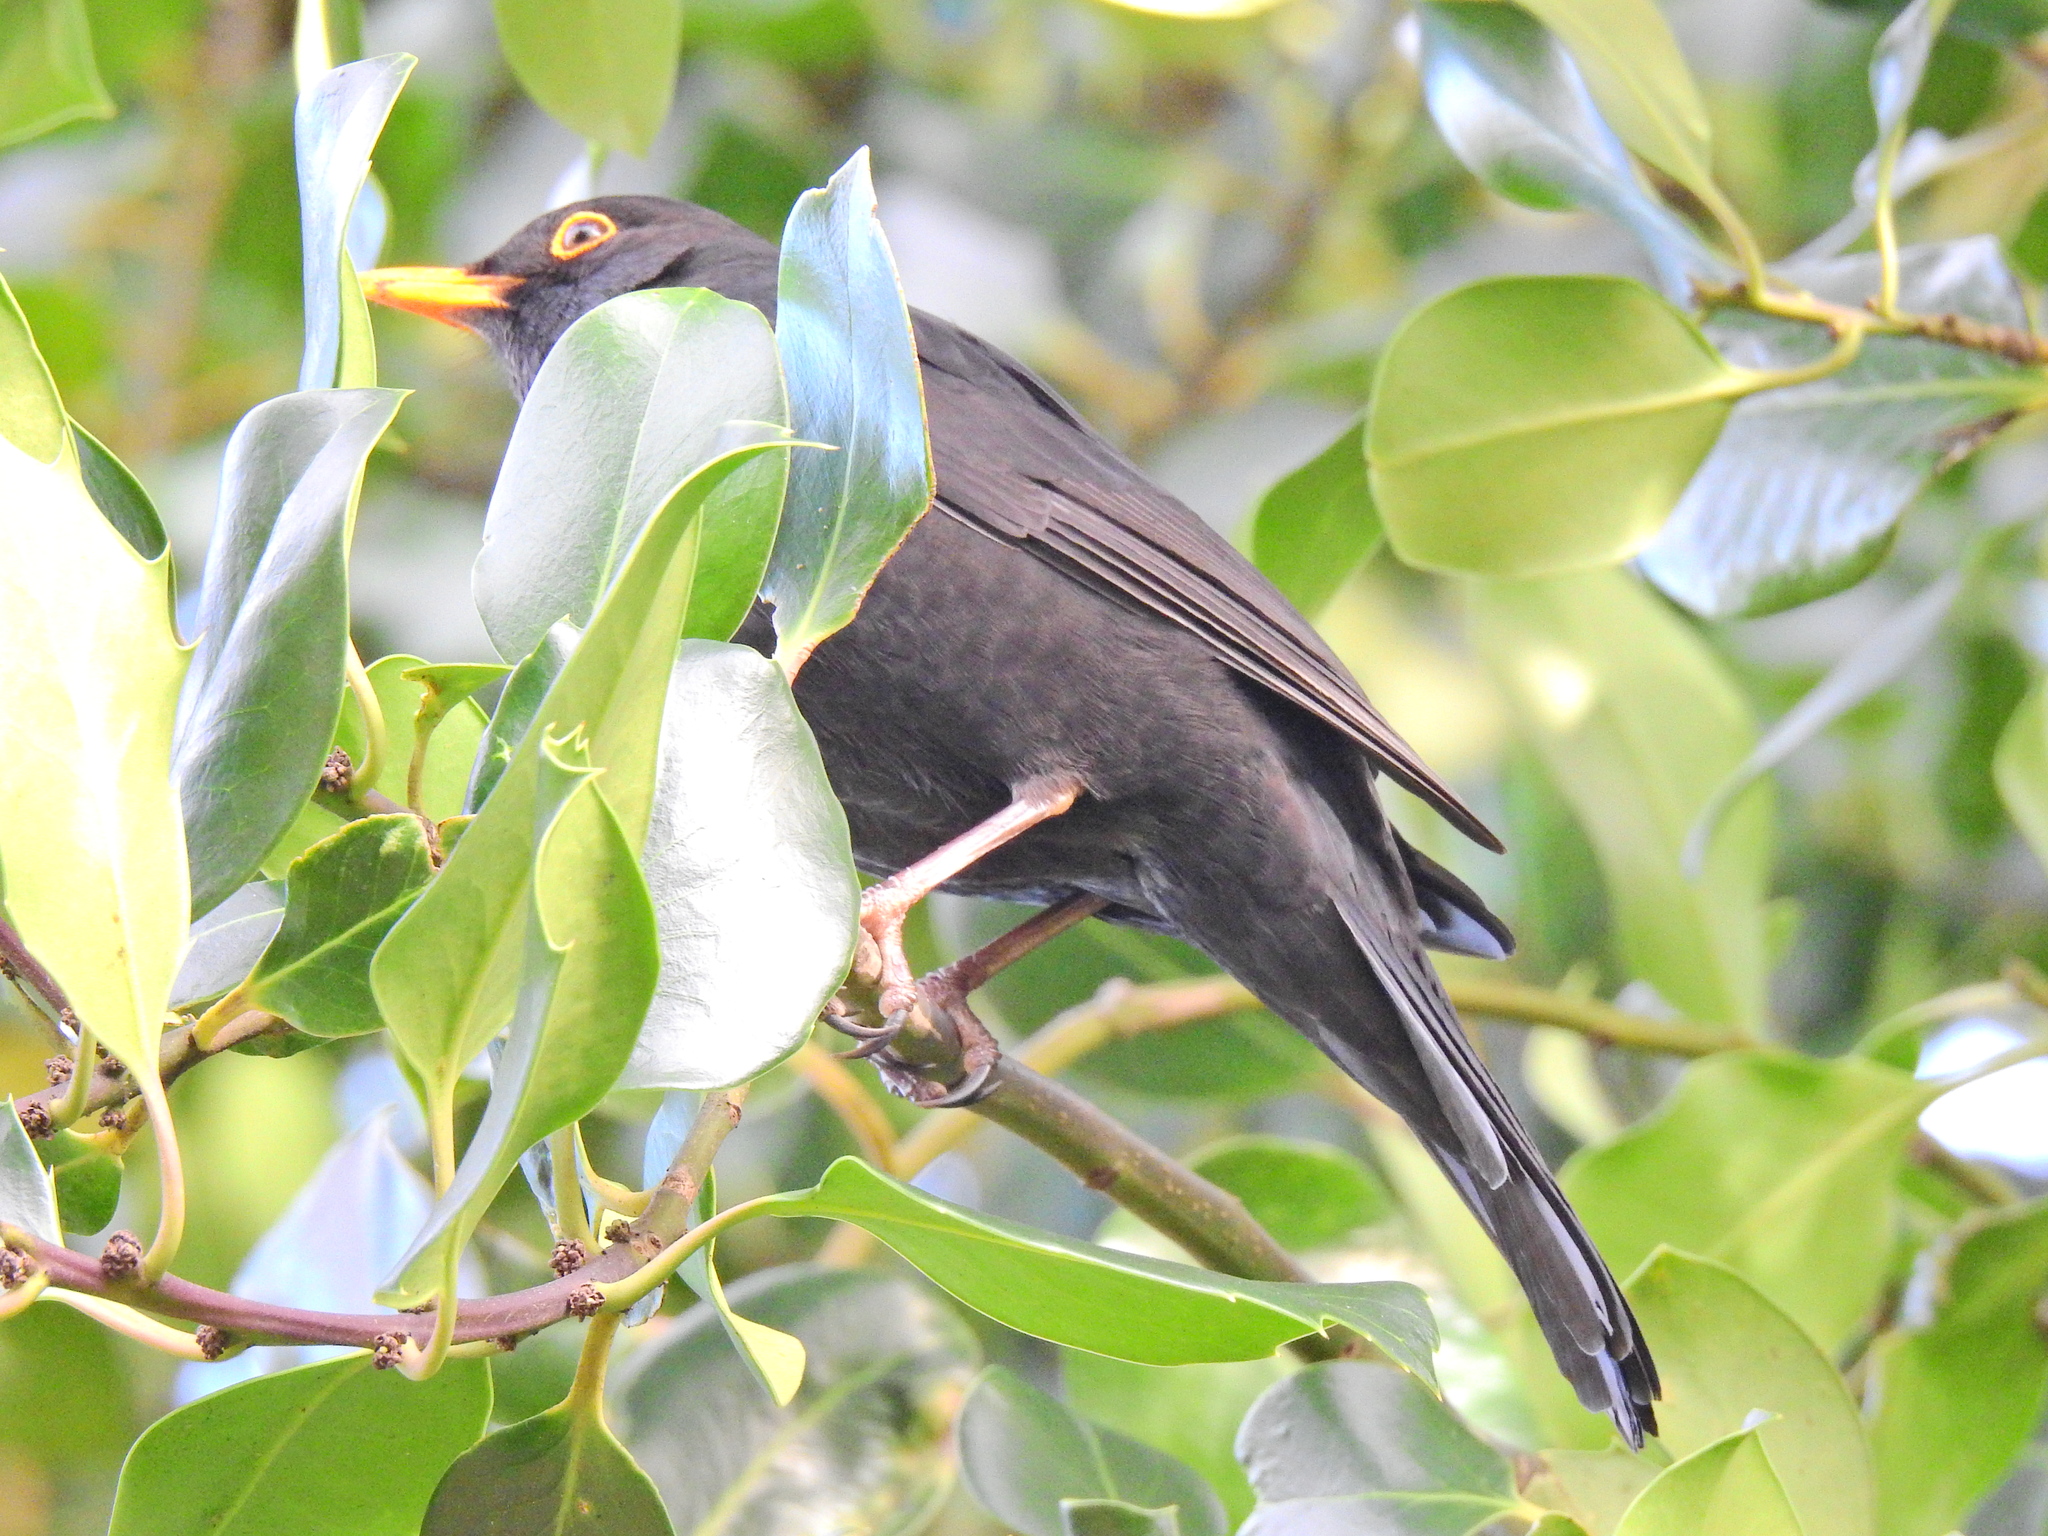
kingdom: Animalia
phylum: Chordata
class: Aves
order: Passeriformes
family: Turdidae
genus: Turdus
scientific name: Turdus merula
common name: Common blackbird
